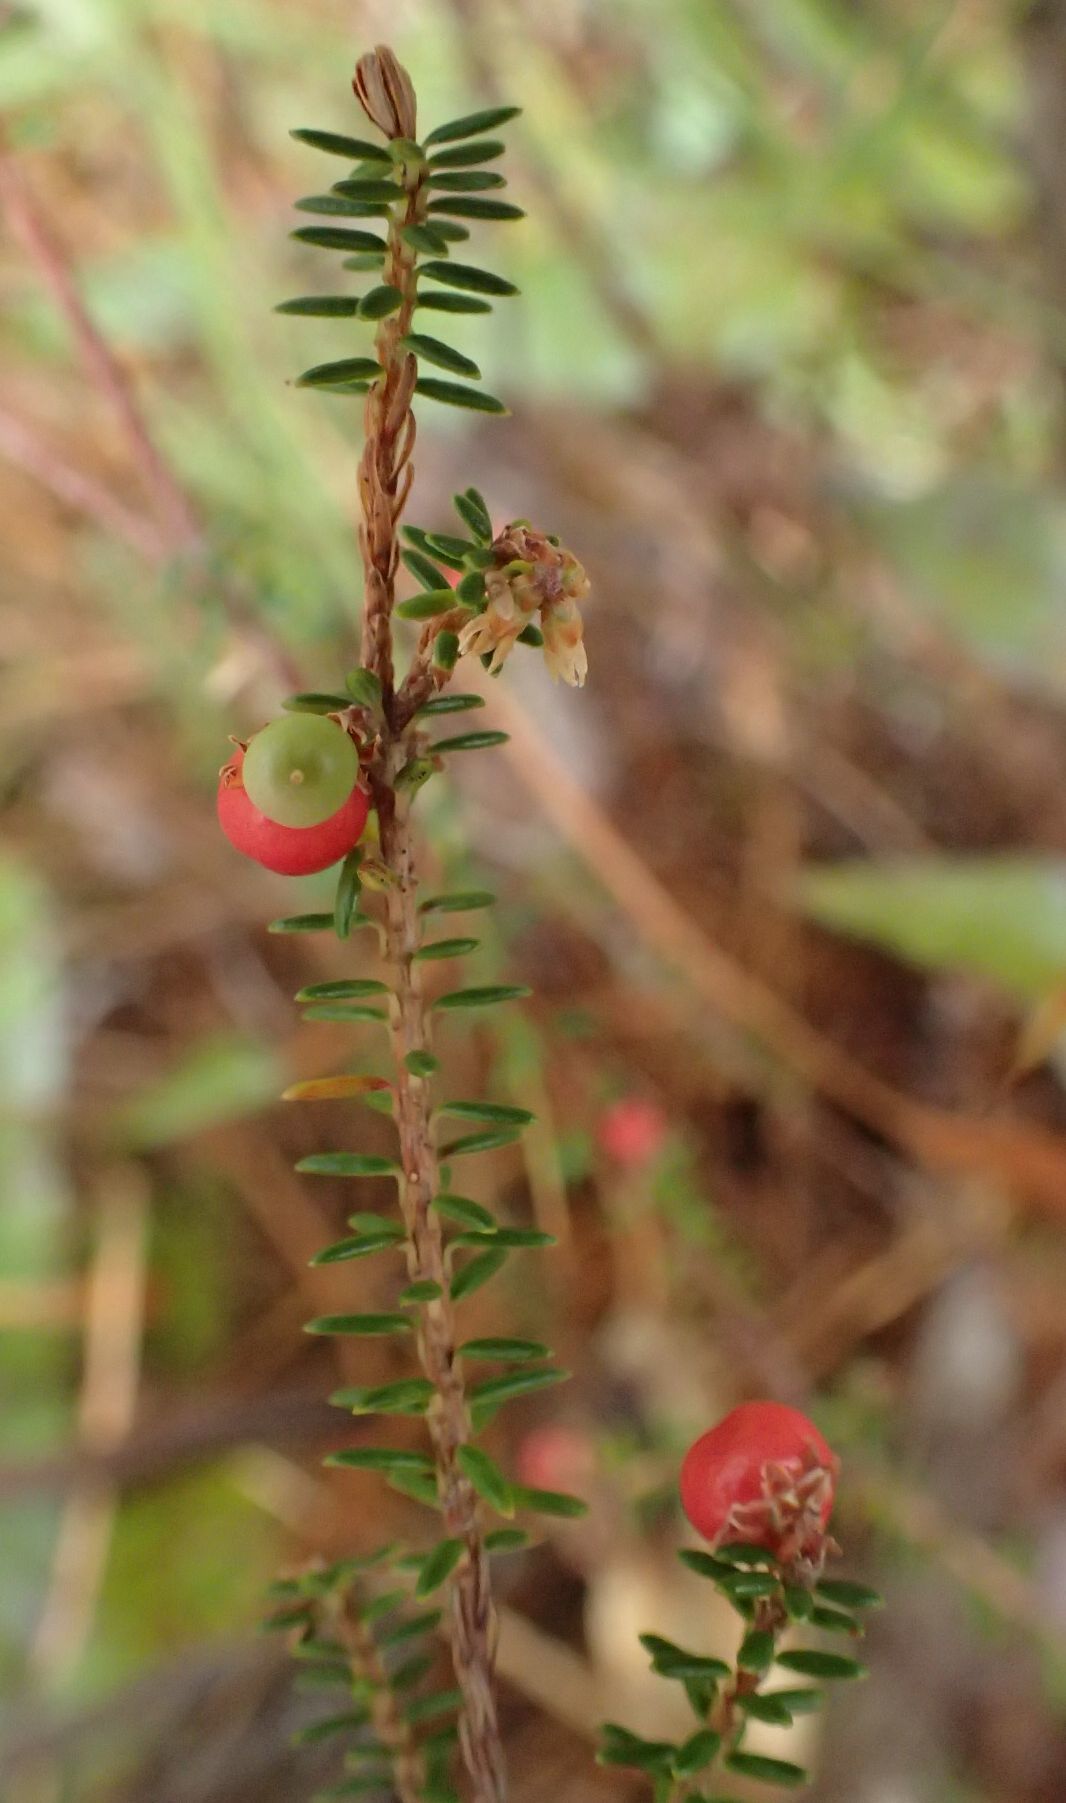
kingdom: Plantae
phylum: Tracheophyta
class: Magnoliopsida
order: Ericales
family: Ericaceae
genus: Androstoma
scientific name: Androstoma empetrifolia
